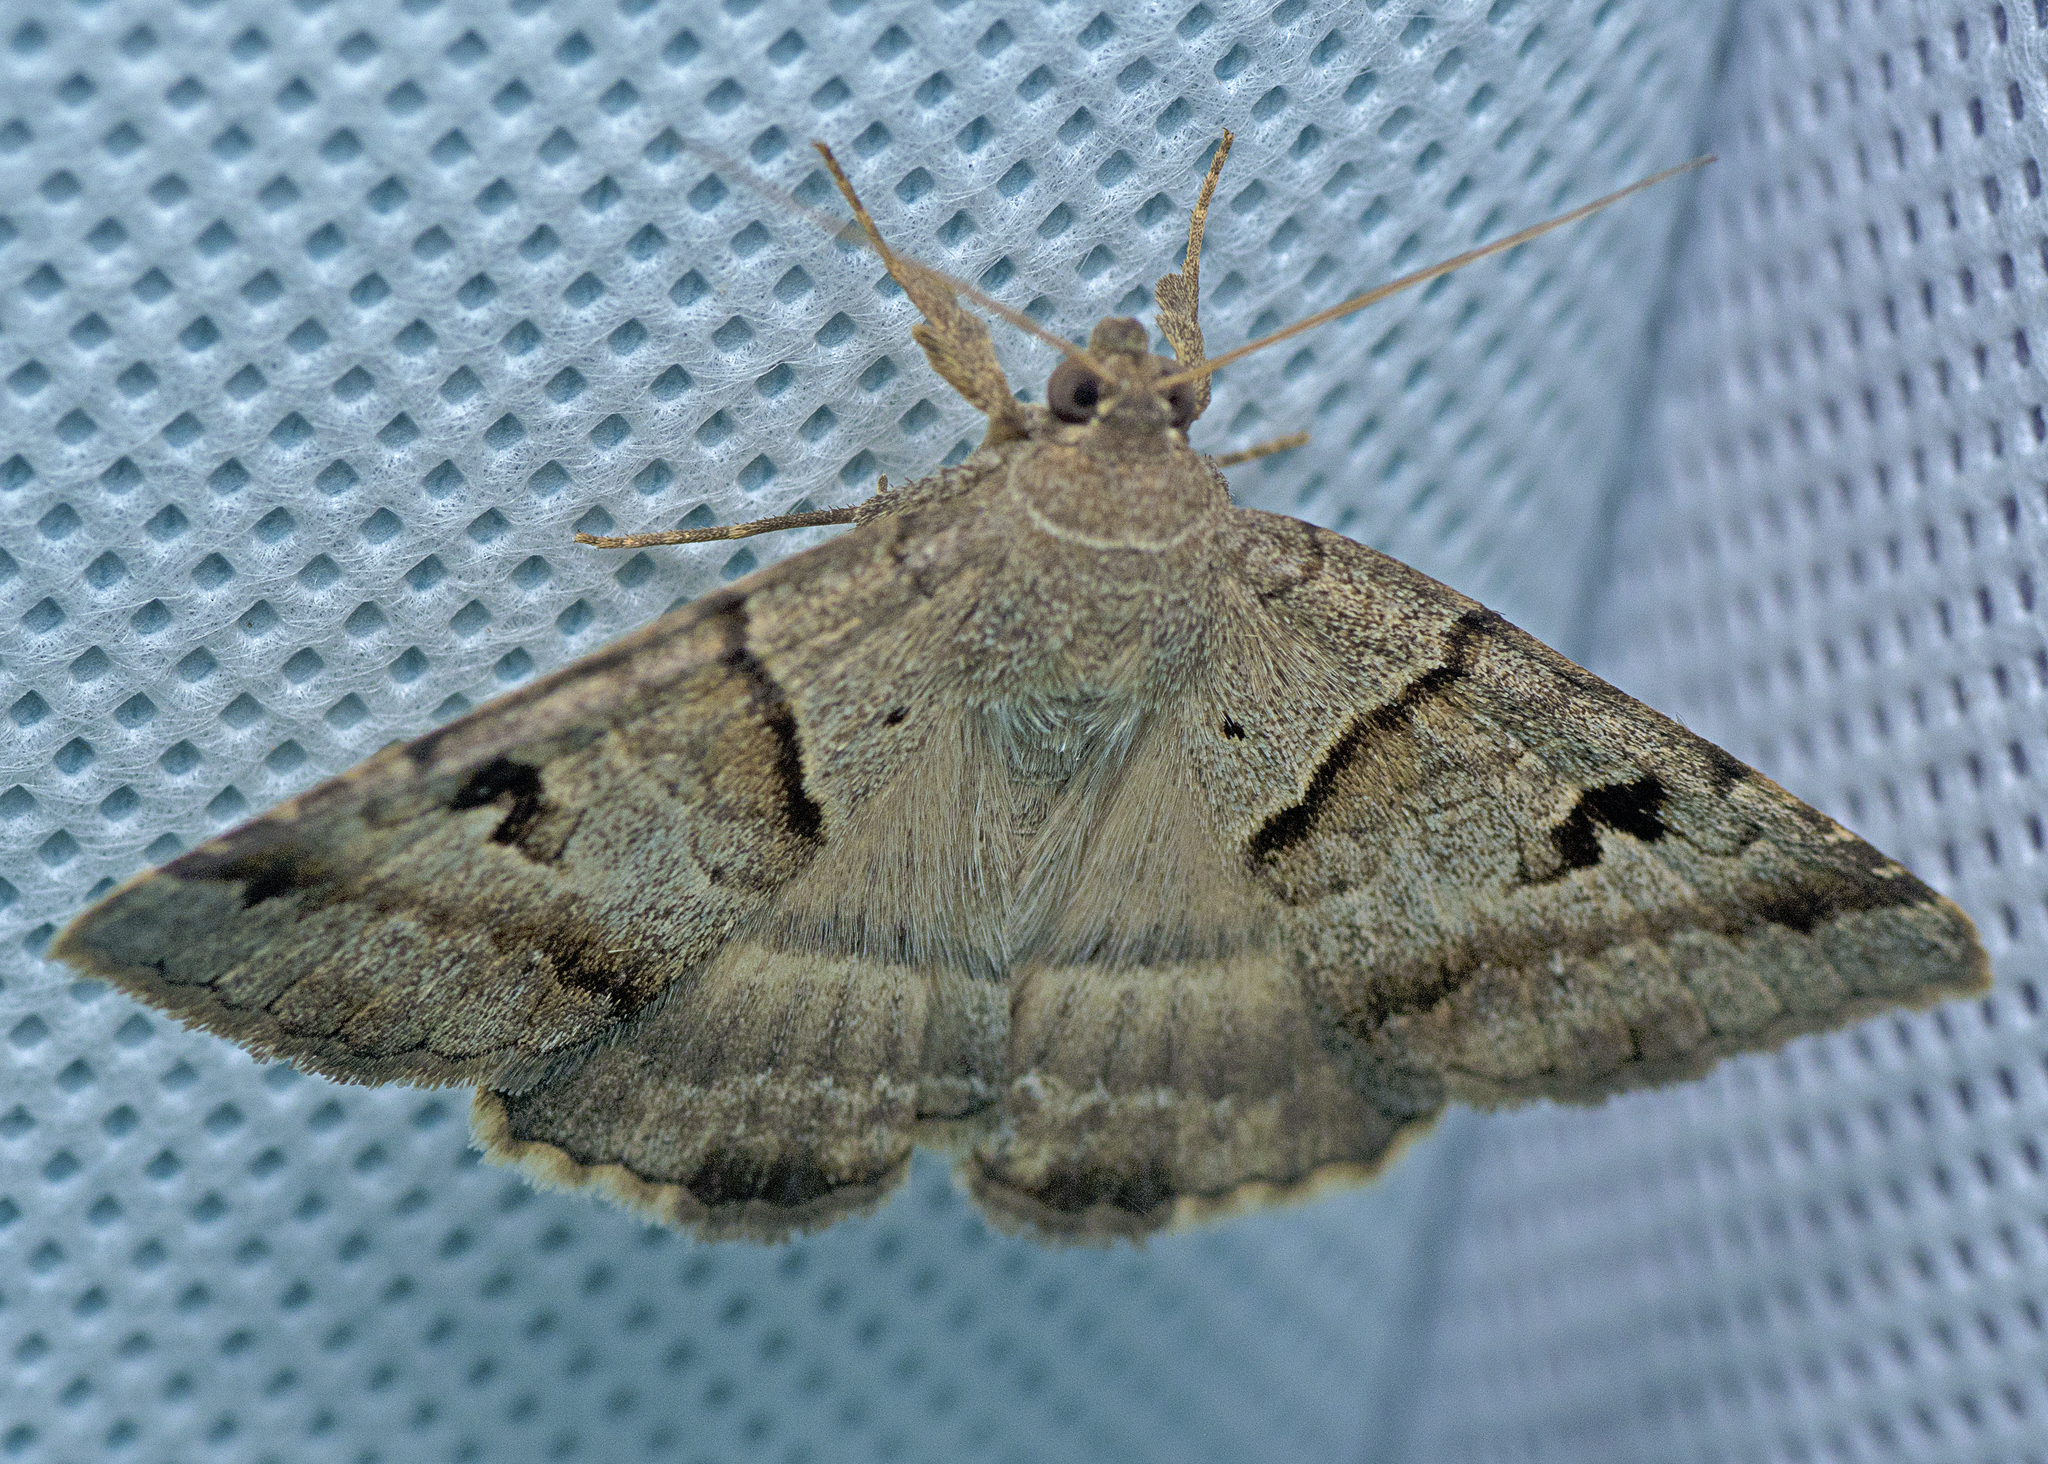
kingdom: Animalia
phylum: Arthropoda
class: Insecta
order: Lepidoptera
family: Erebidae
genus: Mocis
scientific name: Mocis alterna
